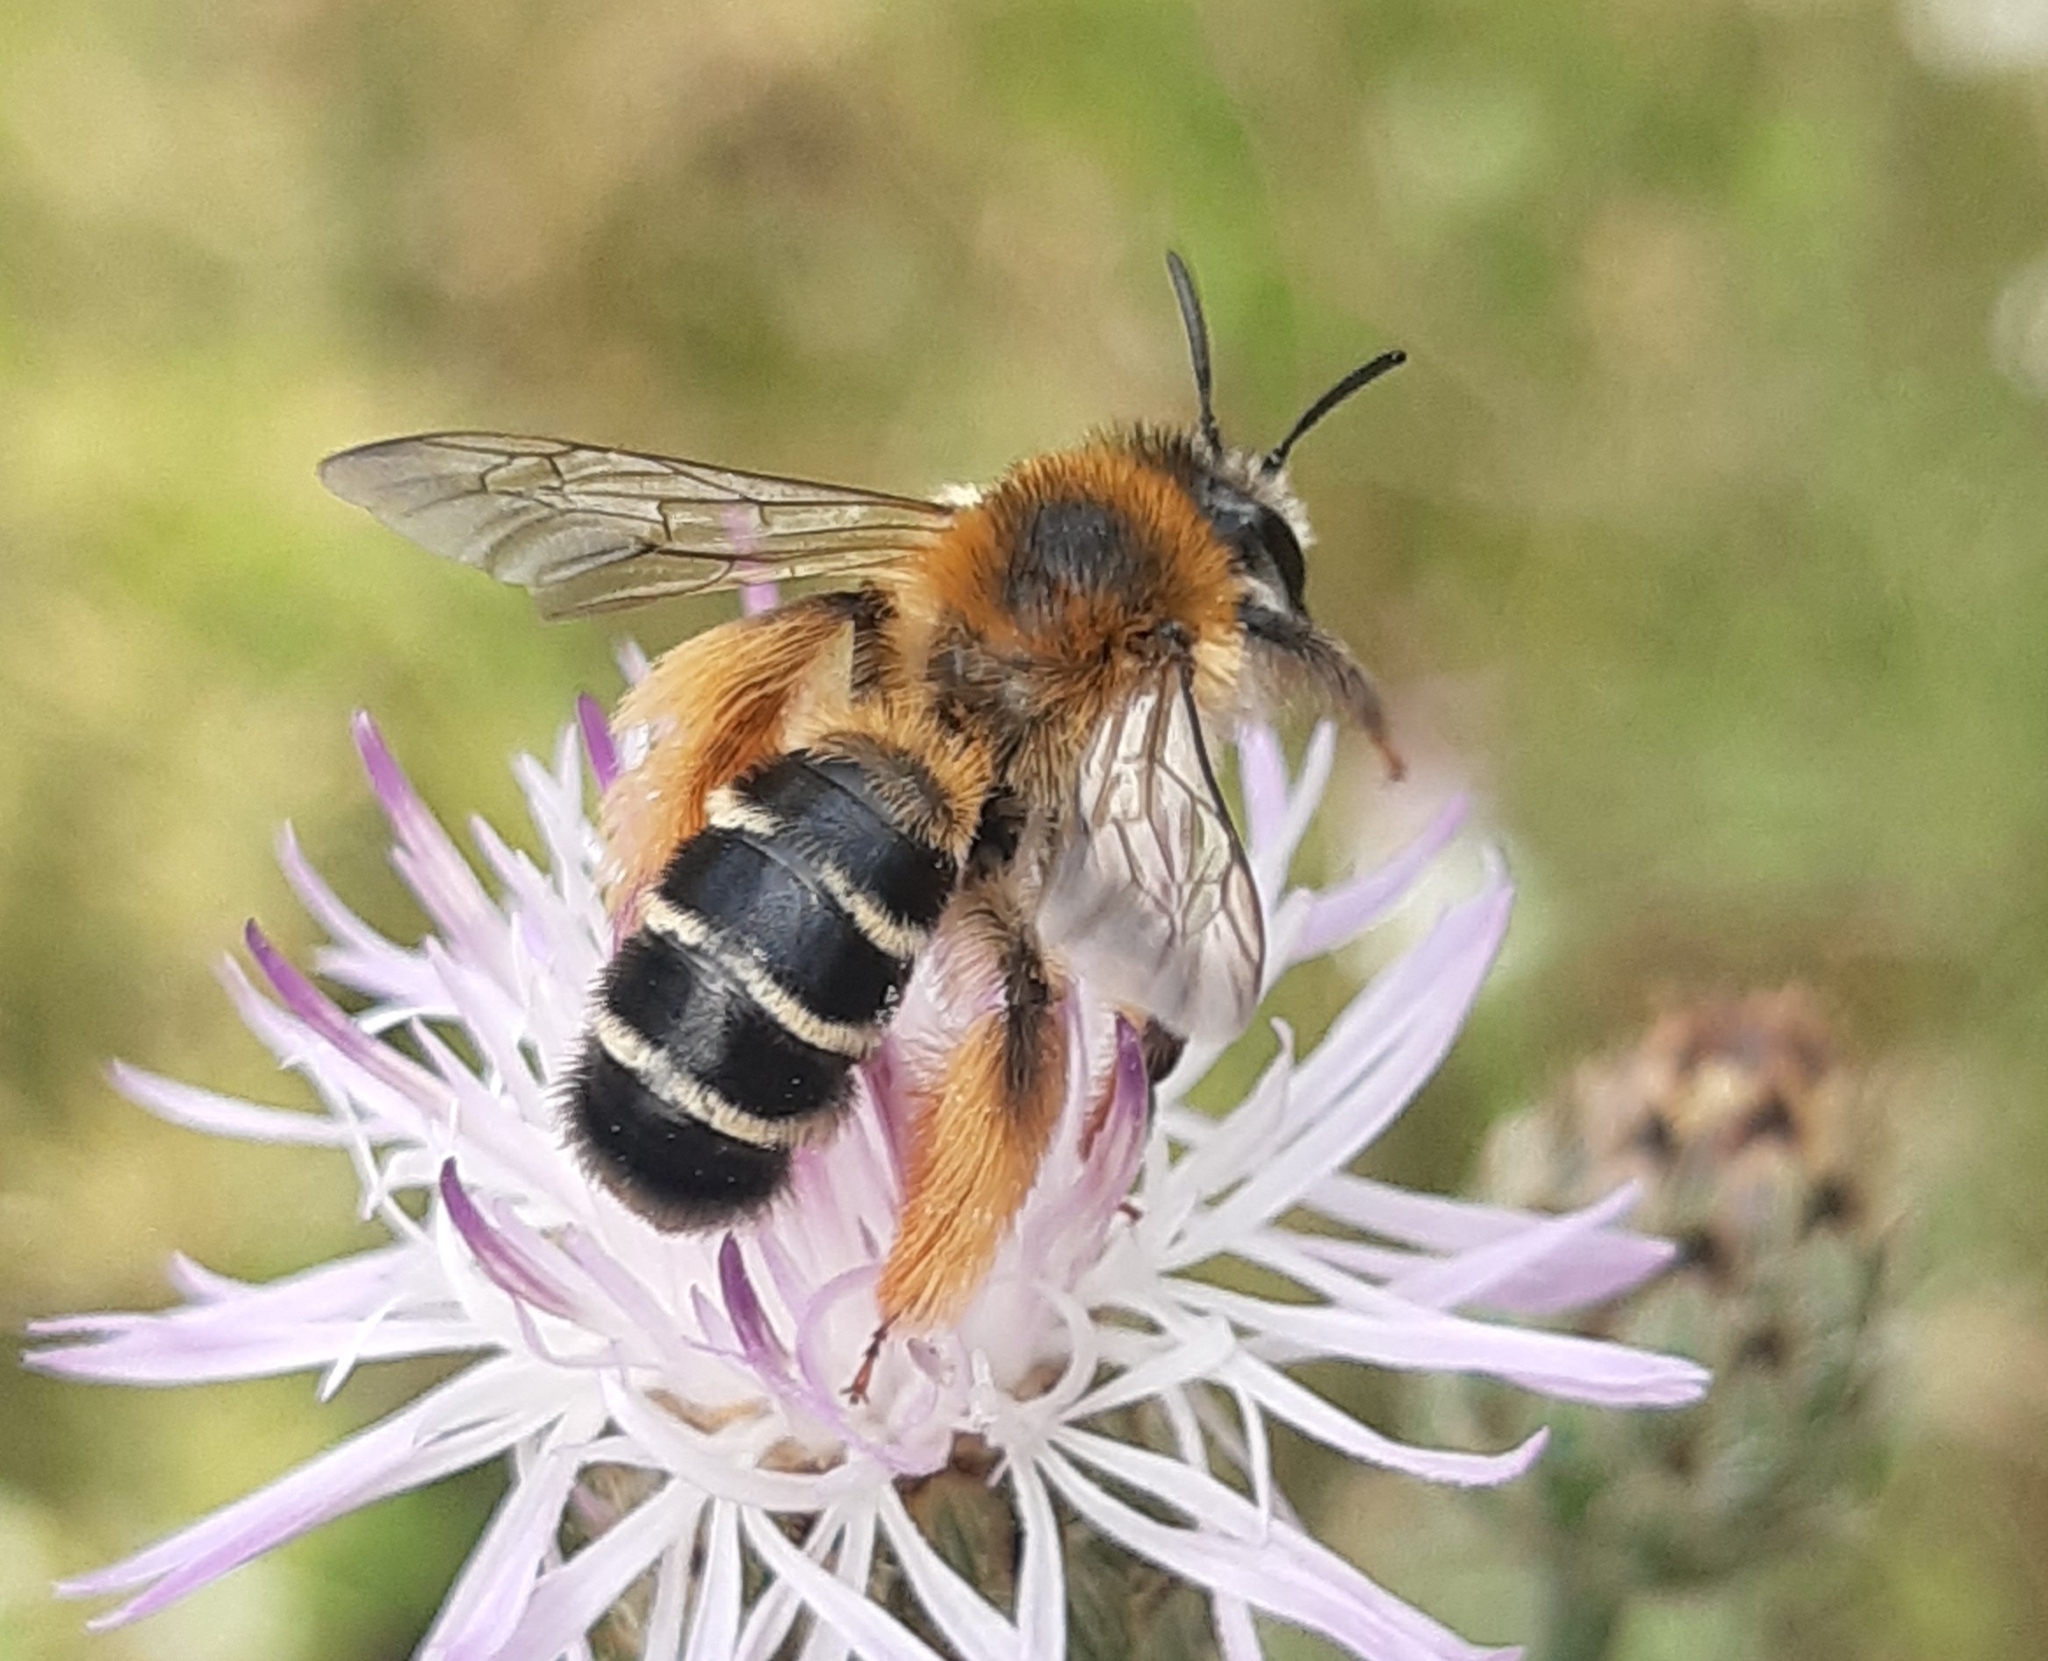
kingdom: Animalia
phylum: Arthropoda
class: Insecta
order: Hymenoptera
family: Melittidae
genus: Dasypoda
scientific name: Dasypoda hirtipes
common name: Pantaloon bee
